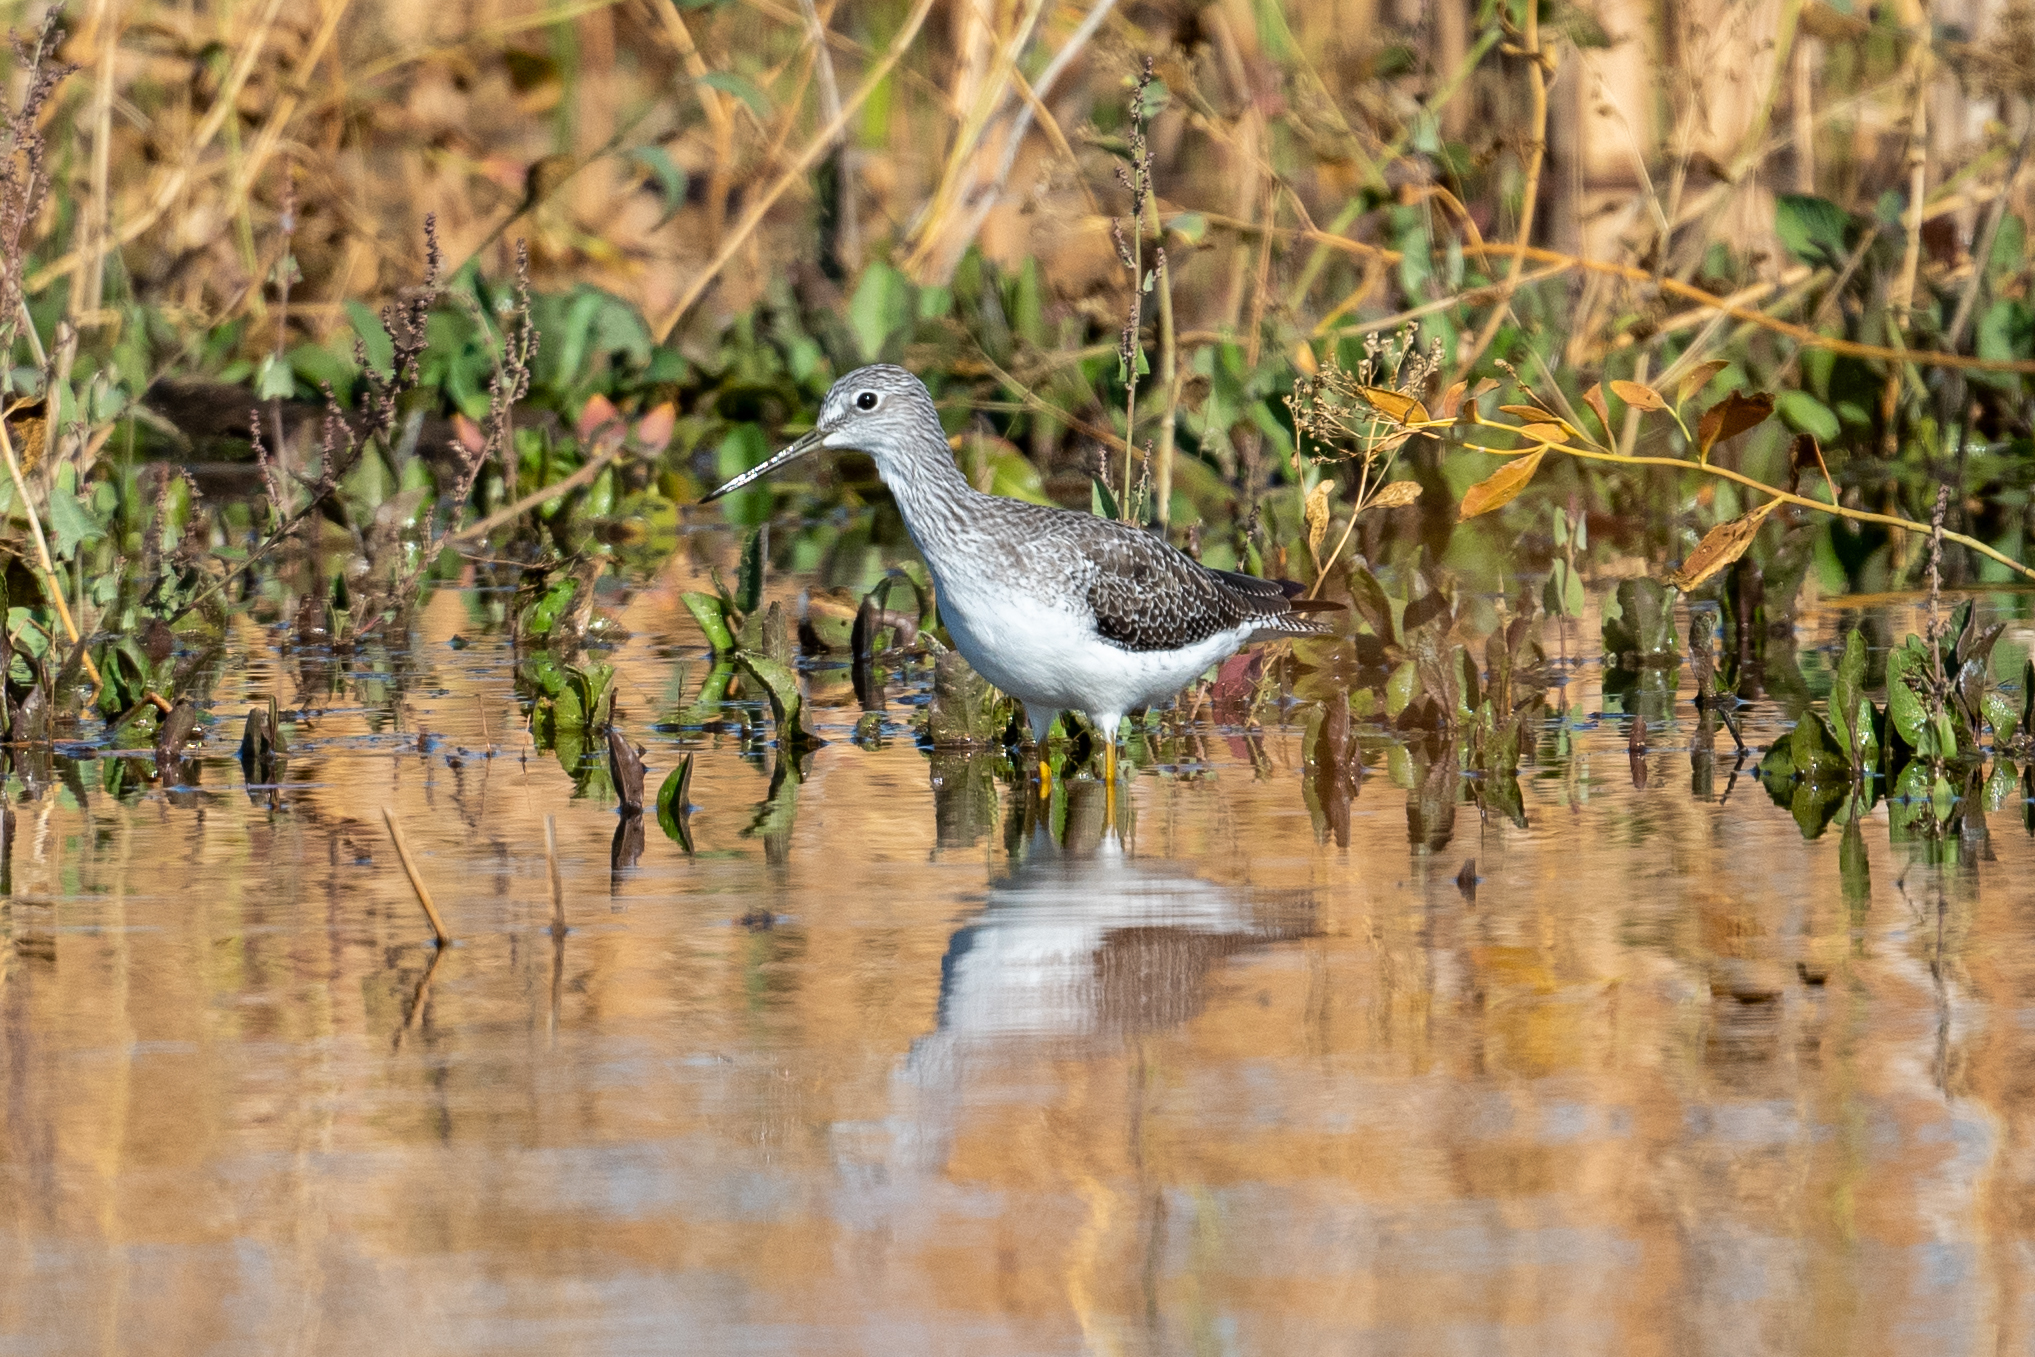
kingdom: Animalia
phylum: Chordata
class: Aves
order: Charadriiformes
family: Scolopacidae
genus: Tringa
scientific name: Tringa melanoleuca
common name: Greater yellowlegs
